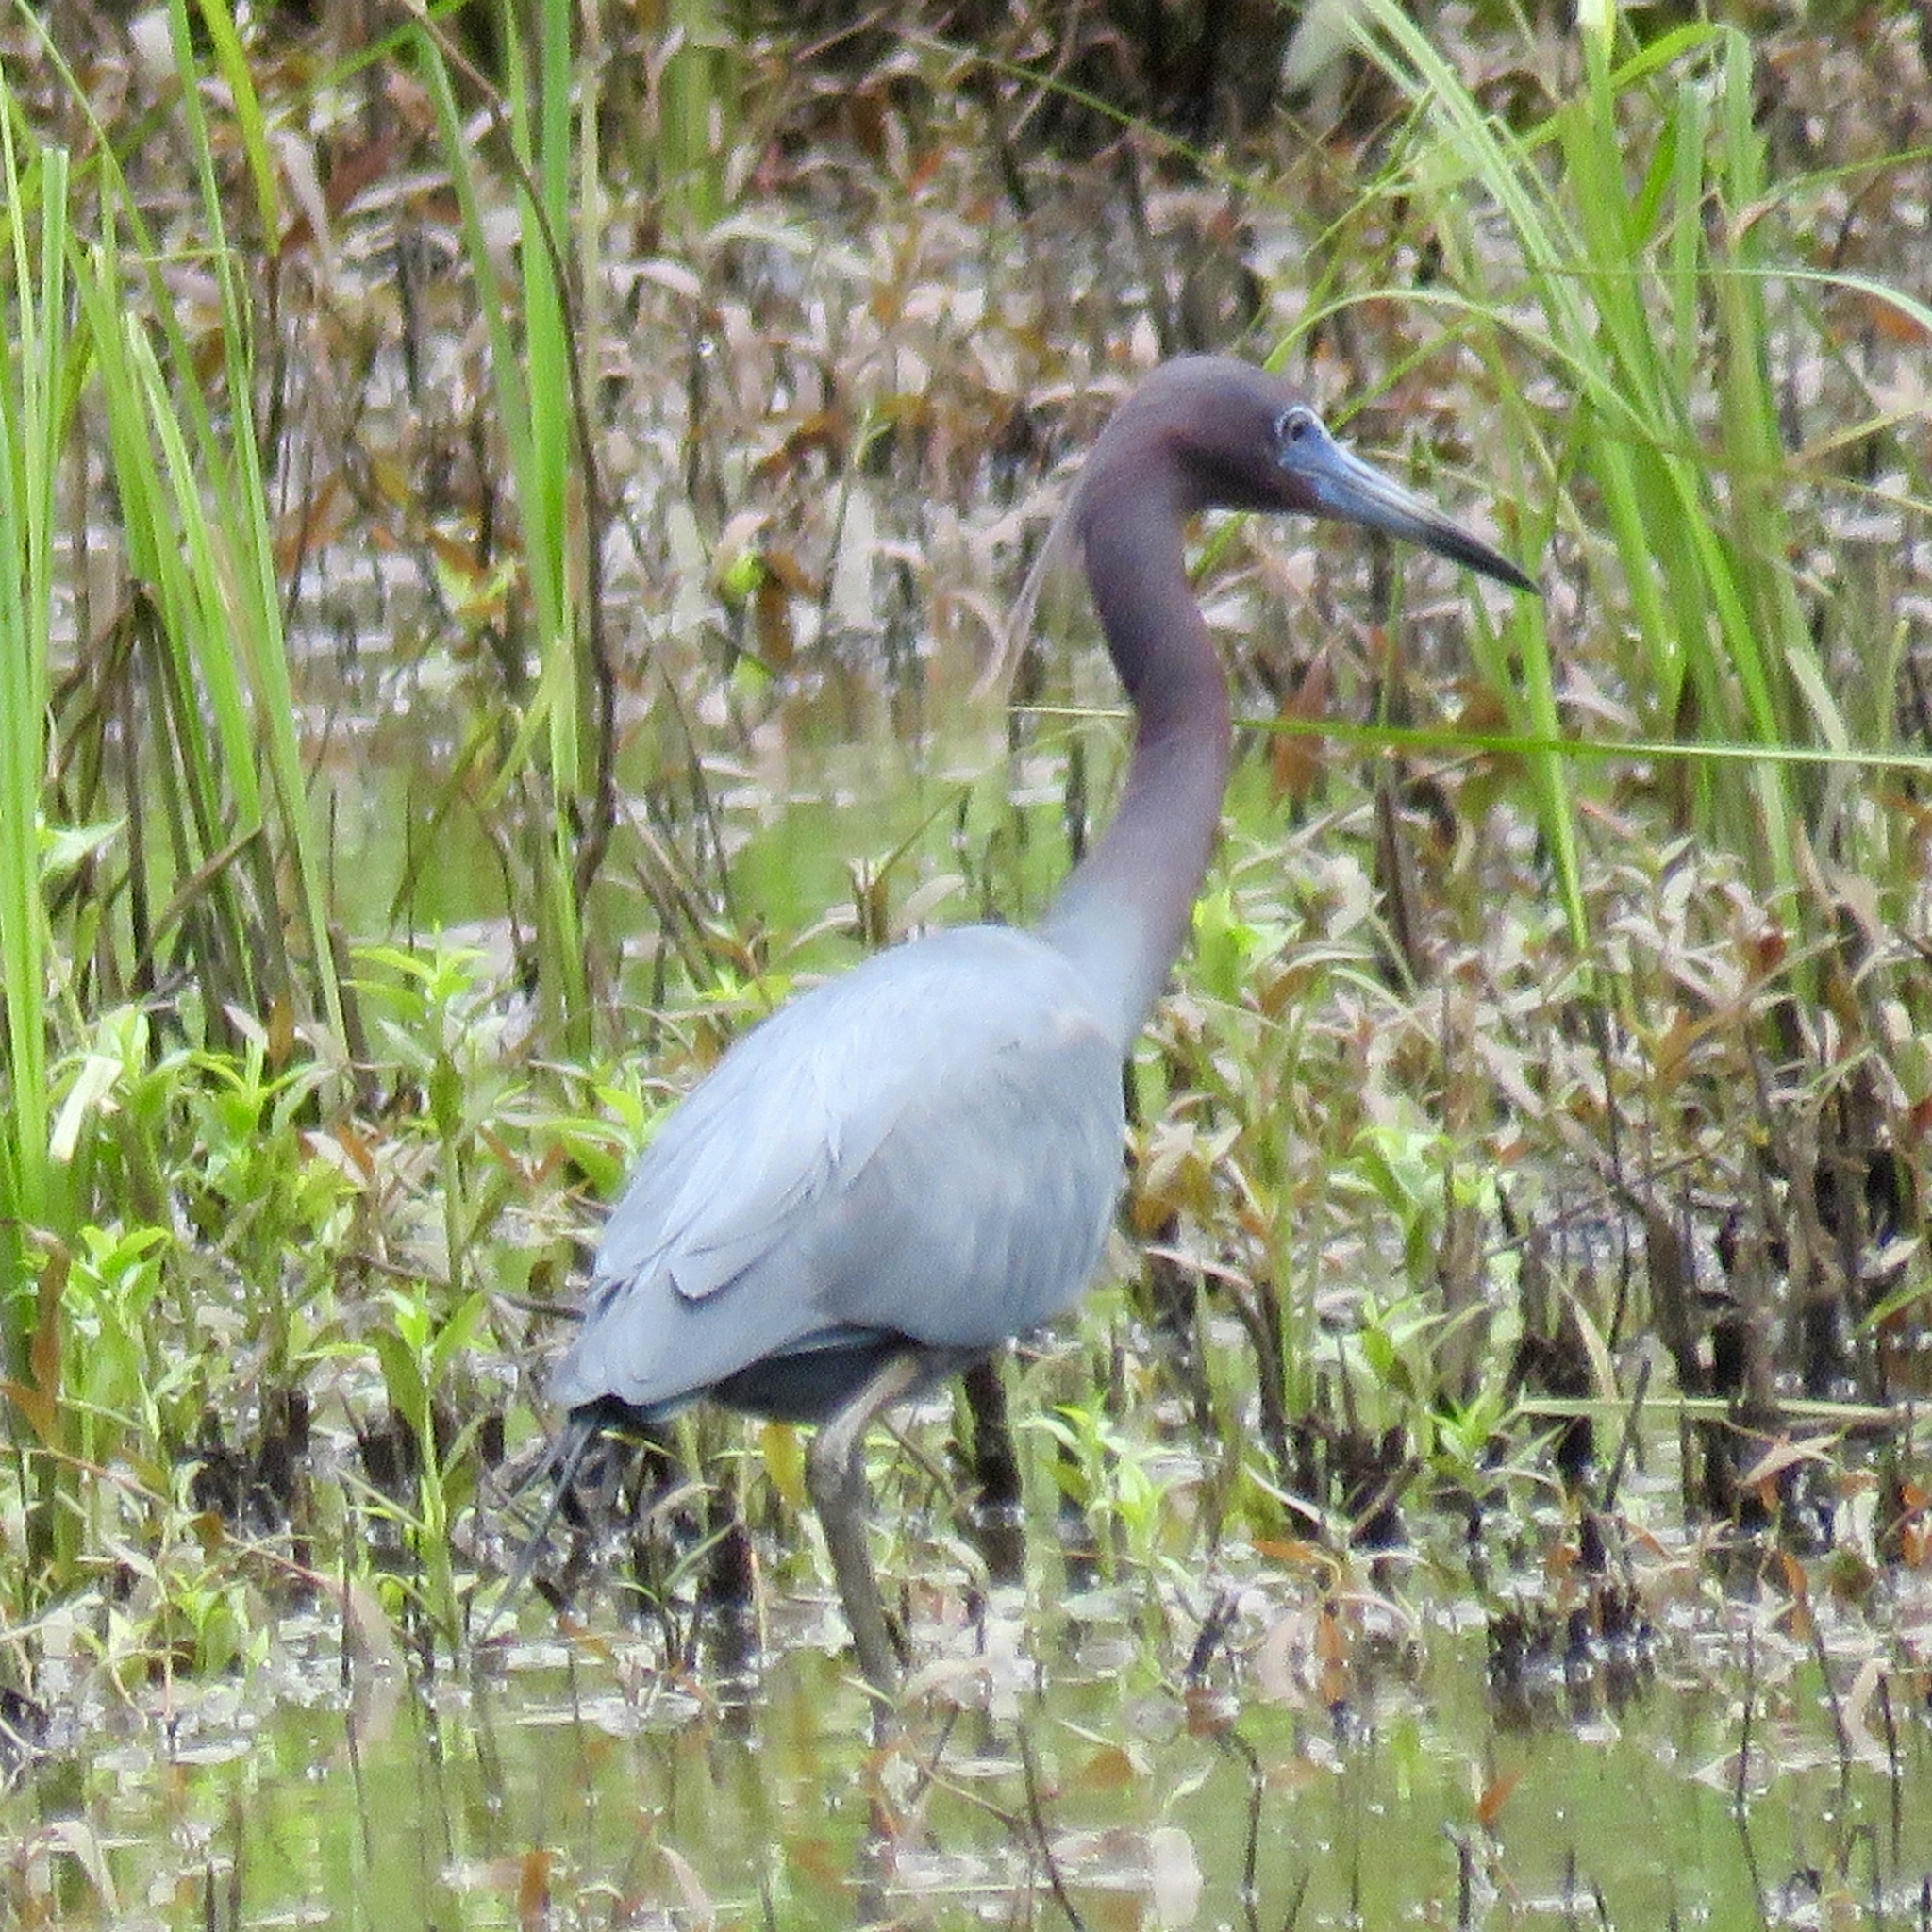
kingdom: Animalia
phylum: Chordata
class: Aves
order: Pelecaniformes
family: Ardeidae
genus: Egretta
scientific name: Egretta caerulea
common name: Little blue heron
